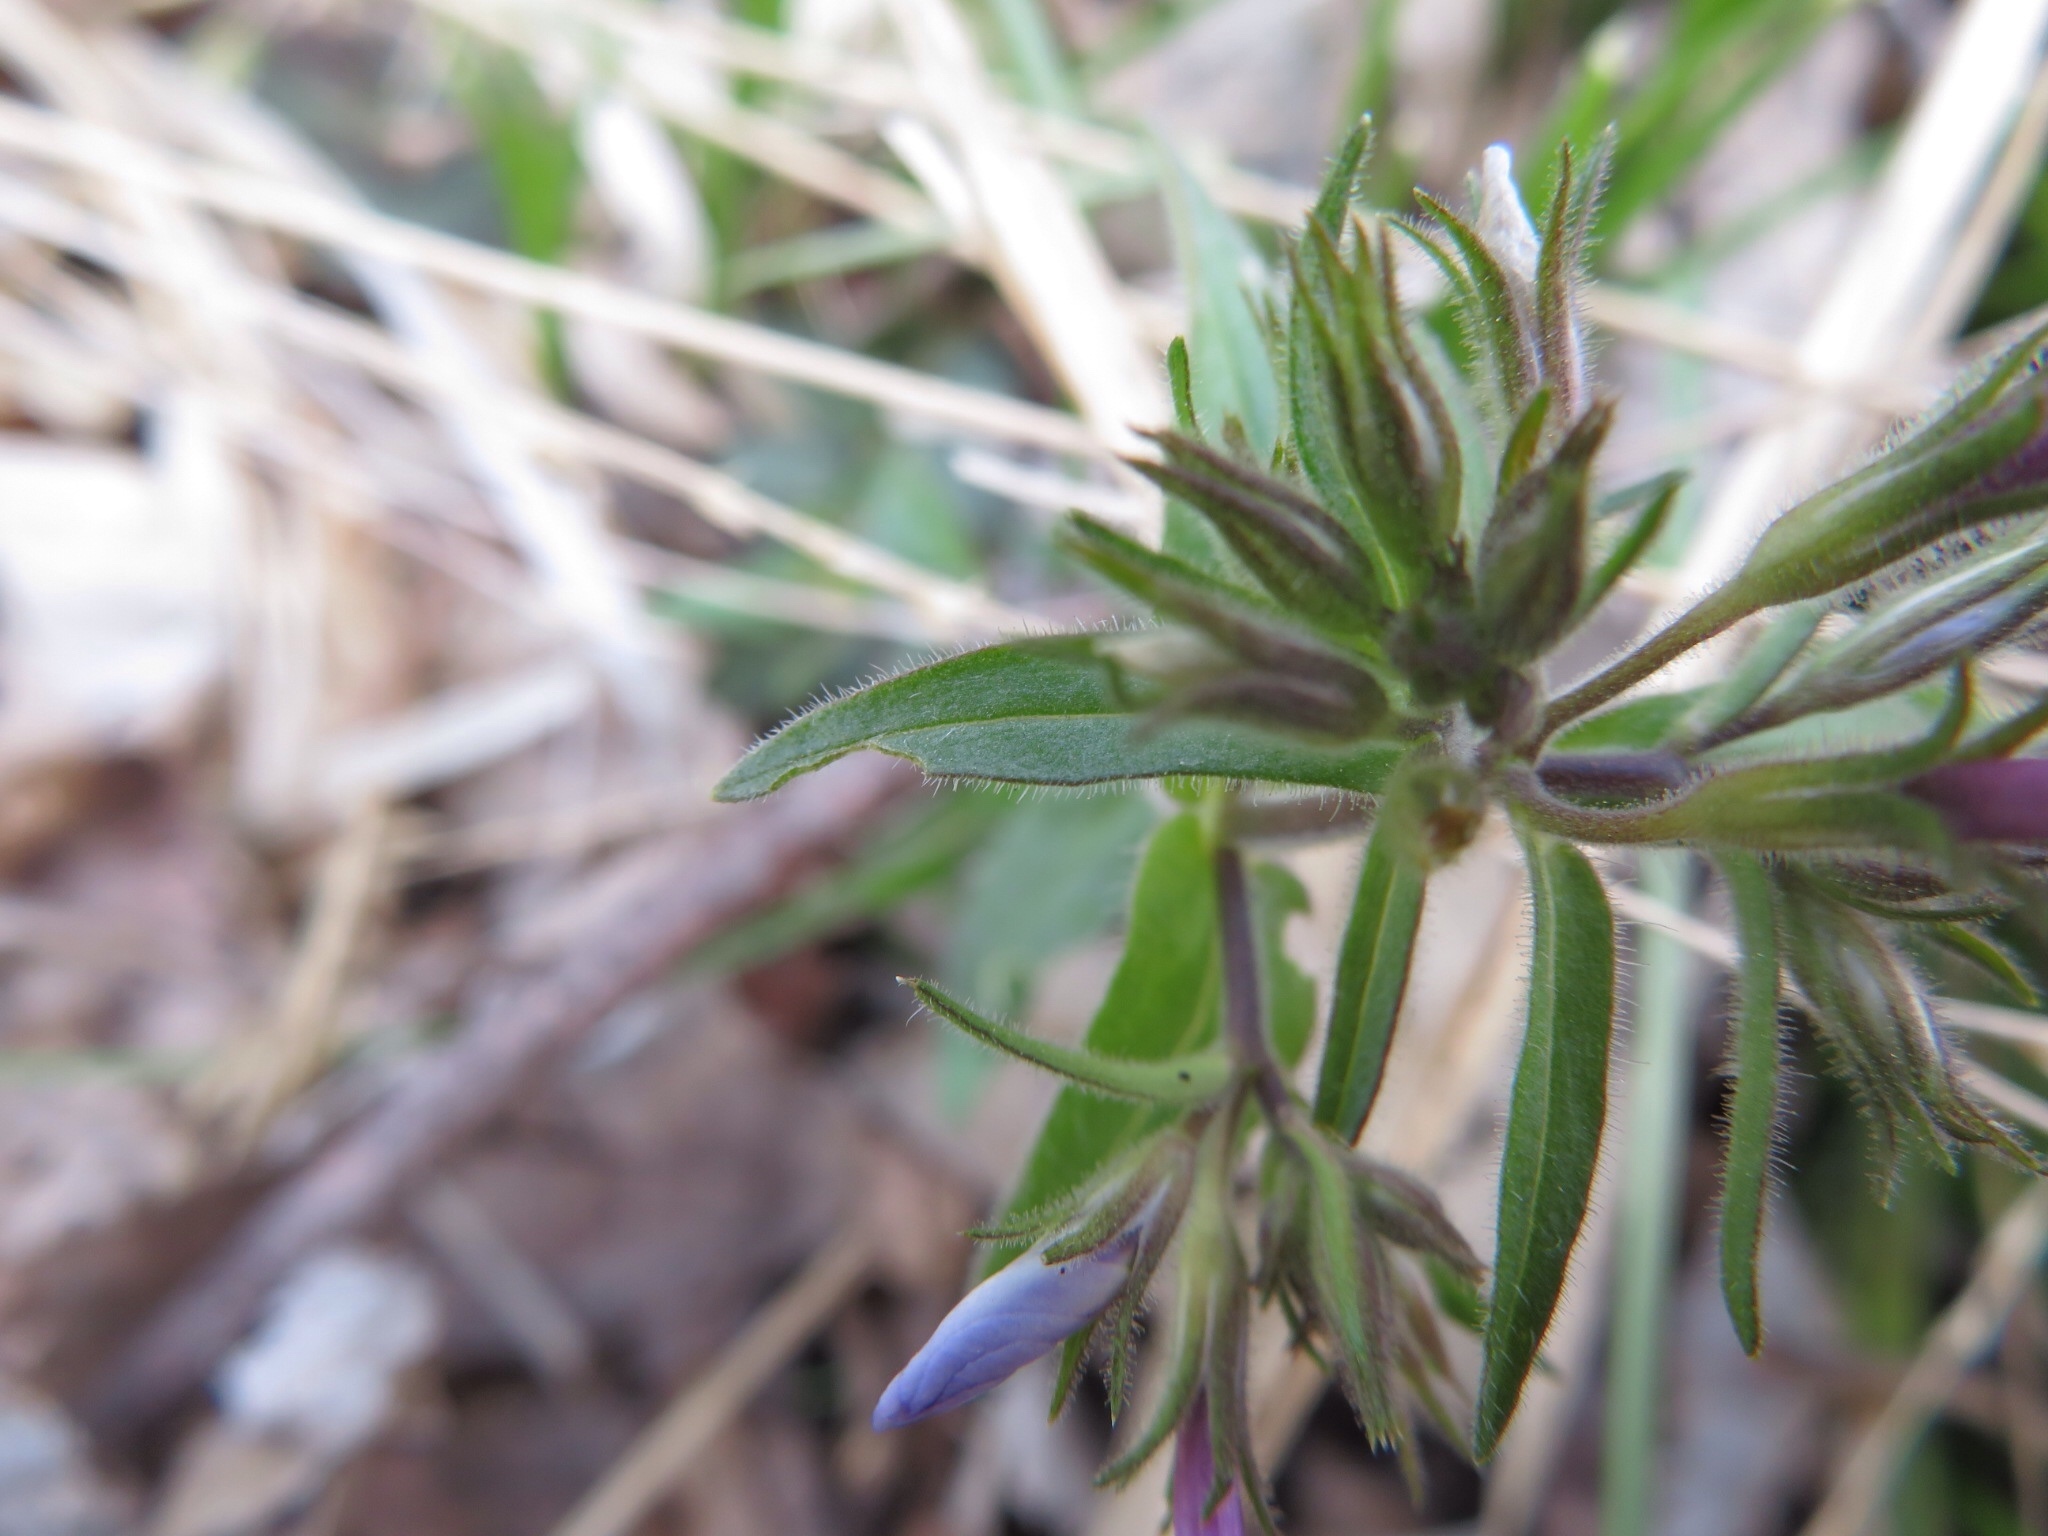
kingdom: Plantae
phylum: Tracheophyta
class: Magnoliopsida
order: Ericales
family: Polemoniaceae
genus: Phlox
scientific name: Phlox divaricata
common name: Blue phlox
